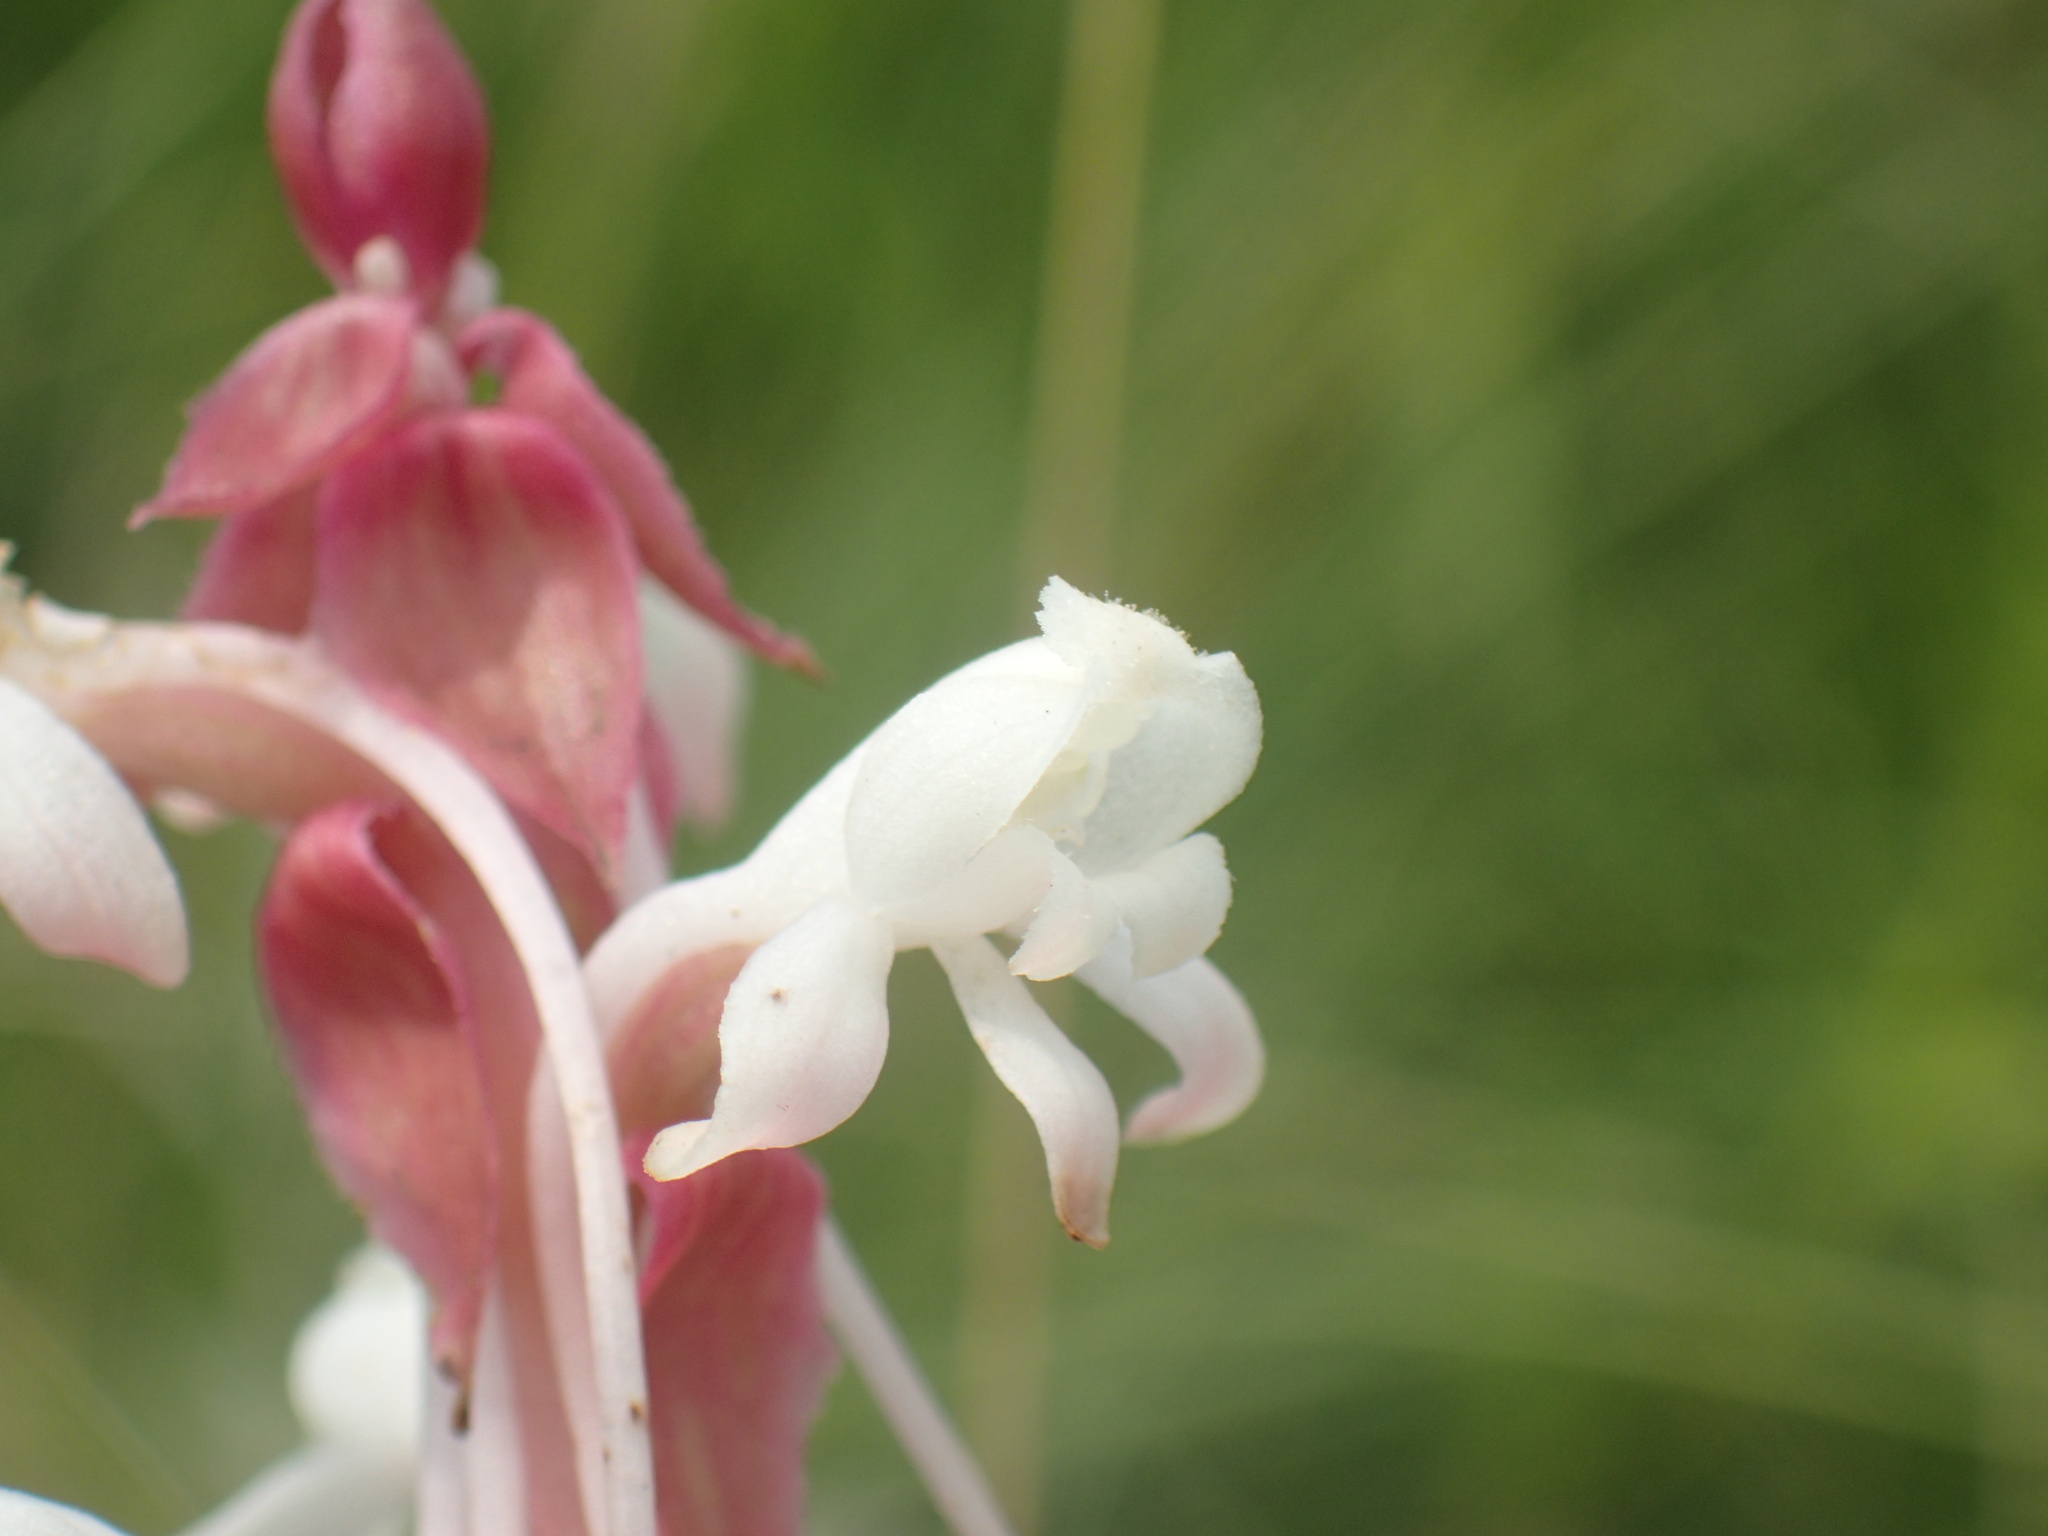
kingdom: Plantae
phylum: Tracheophyta
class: Liliopsida
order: Asparagales
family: Orchidaceae
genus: Satyrium
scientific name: Satyrium longicauda
